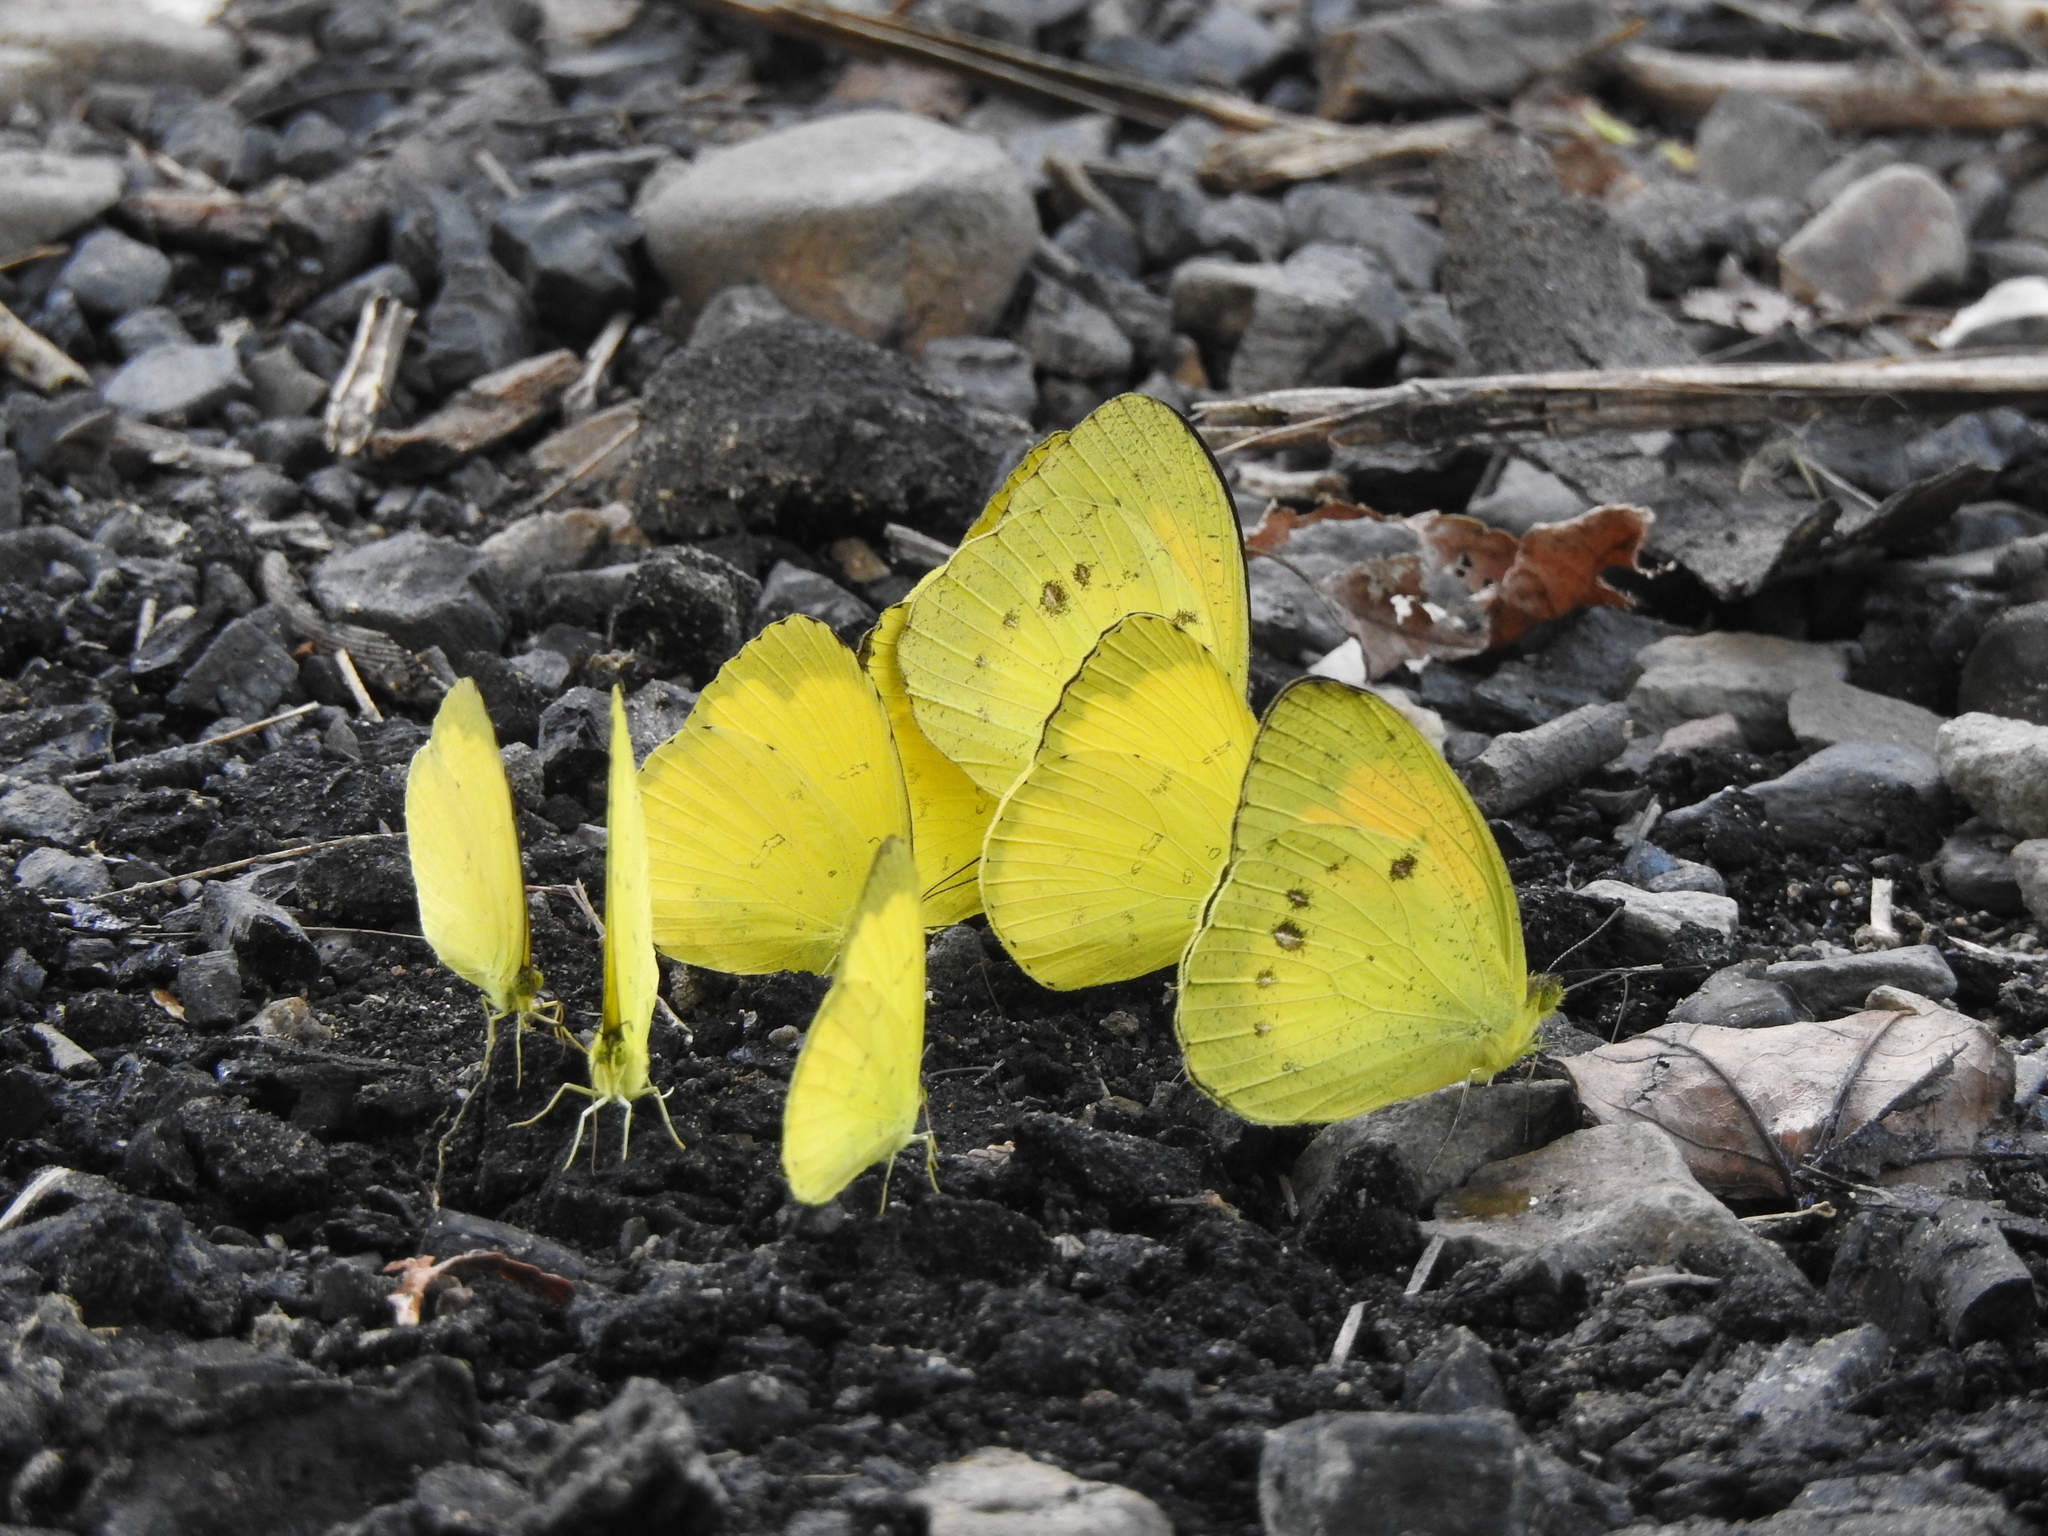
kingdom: Animalia
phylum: Arthropoda
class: Insecta
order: Lepidoptera
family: Pieridae
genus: Ixias
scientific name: Ixias pyrene
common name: Yellow orange tip
